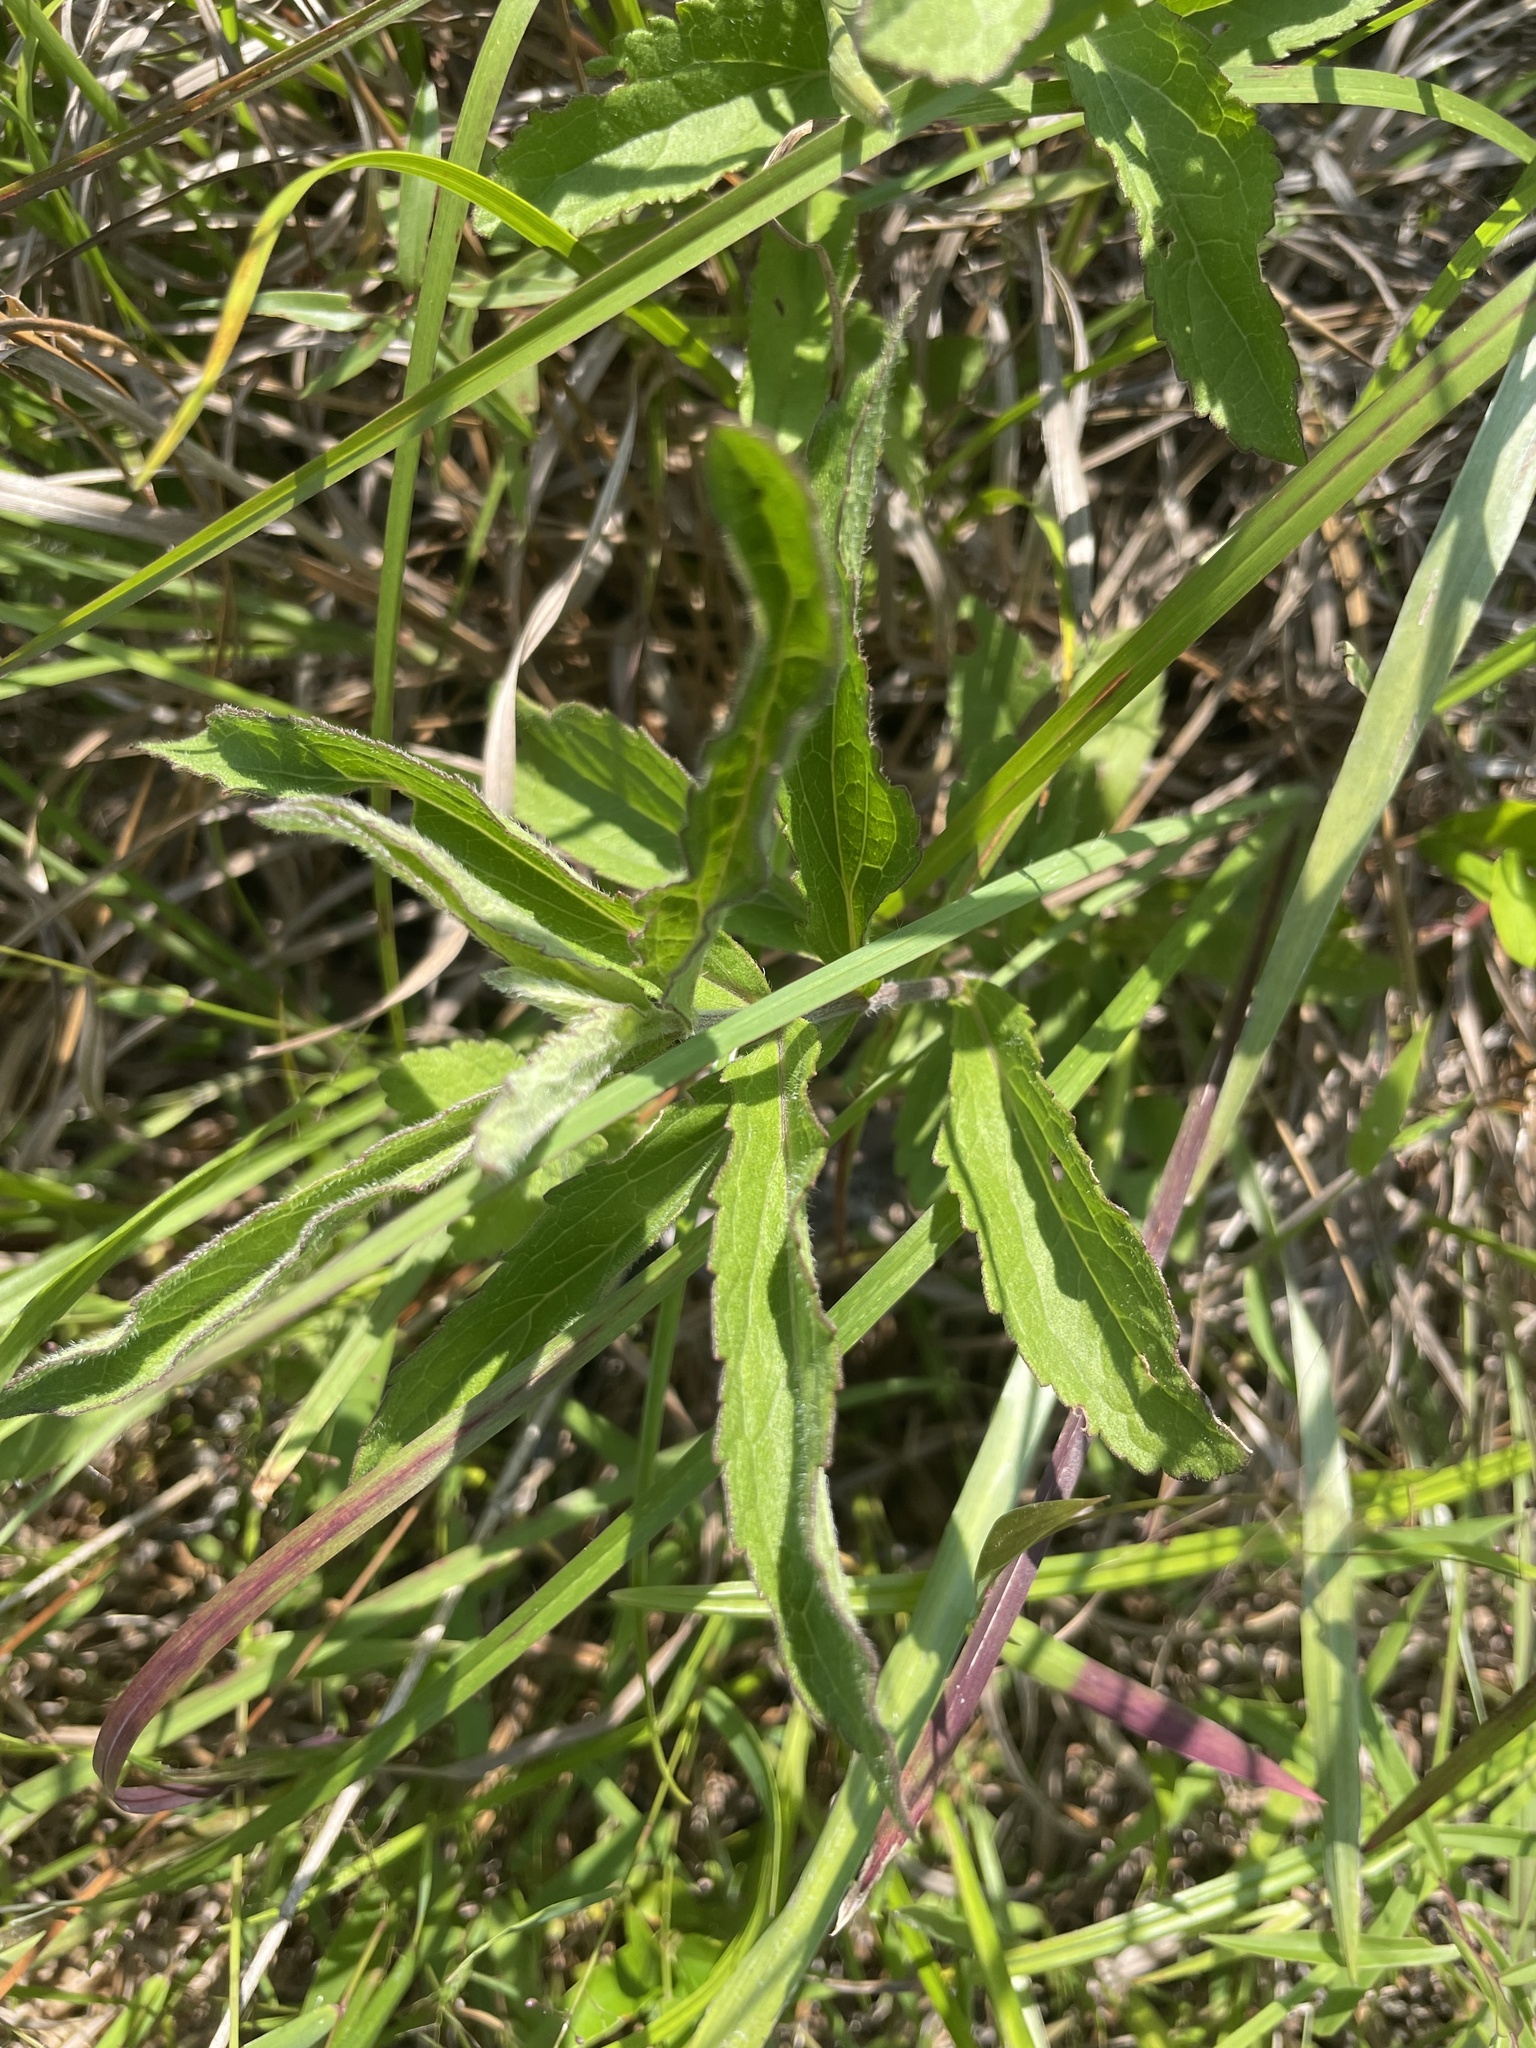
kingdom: Plantae
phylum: Tracheophyta
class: Magnoliopsida
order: Asterales
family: Asteraceae
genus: Eupatorium
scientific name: Eupatorium album
